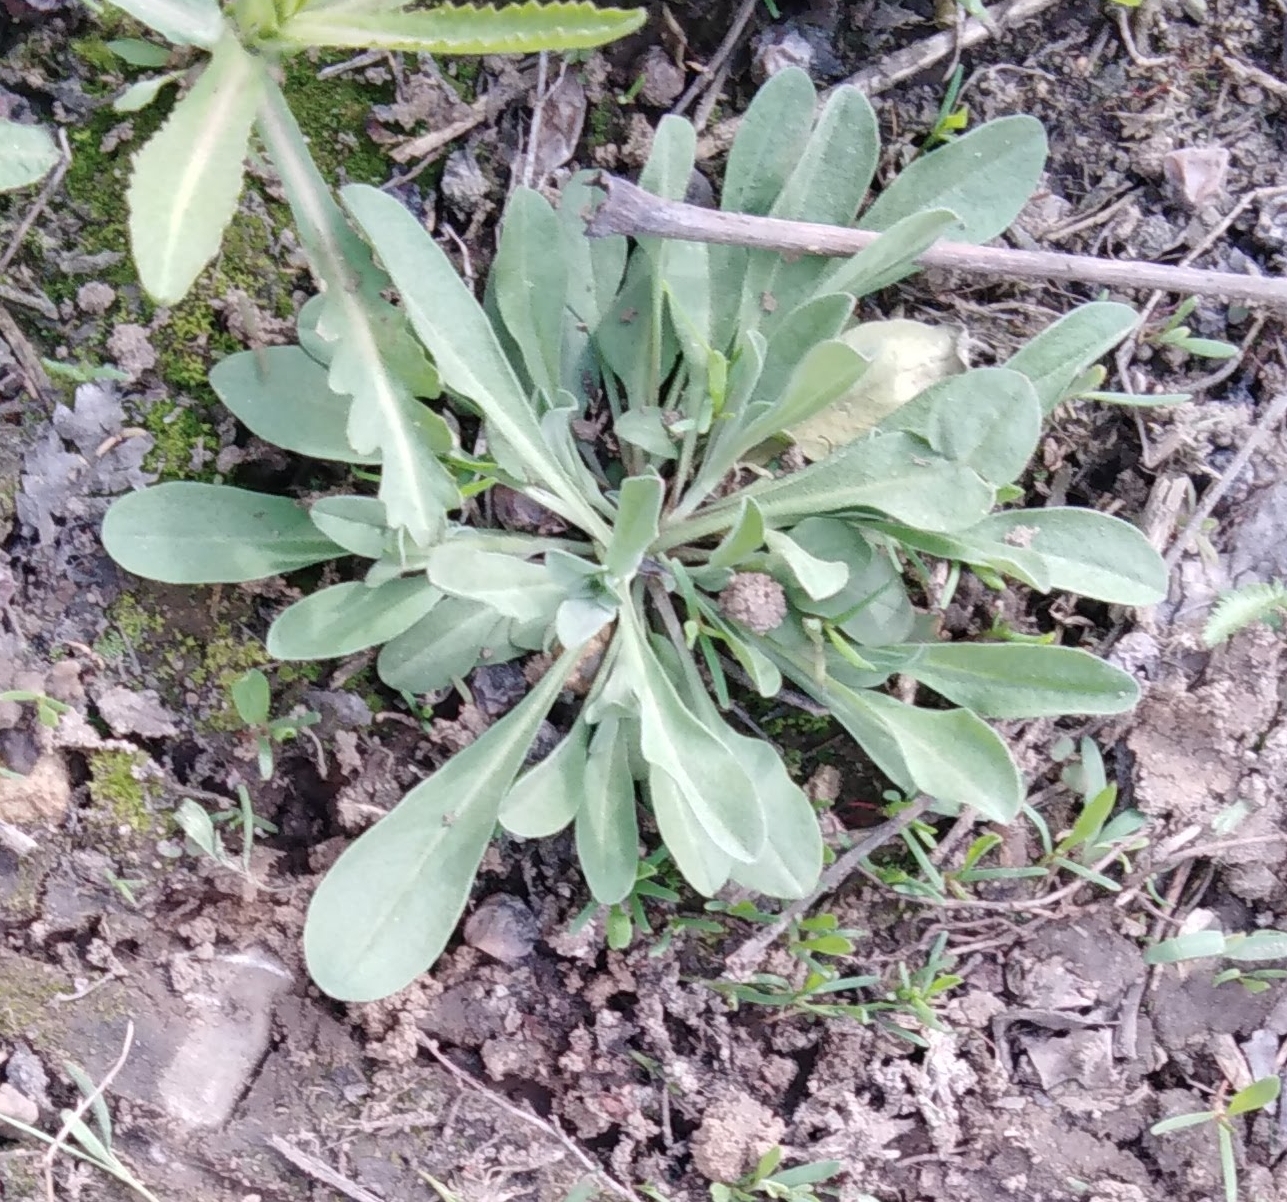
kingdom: Plantae
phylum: Tracheophyta
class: Magnoliopsida
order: Brassicales
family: Brassicaceae
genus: Berteroa
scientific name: Berteroa incana
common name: Hoary alison
